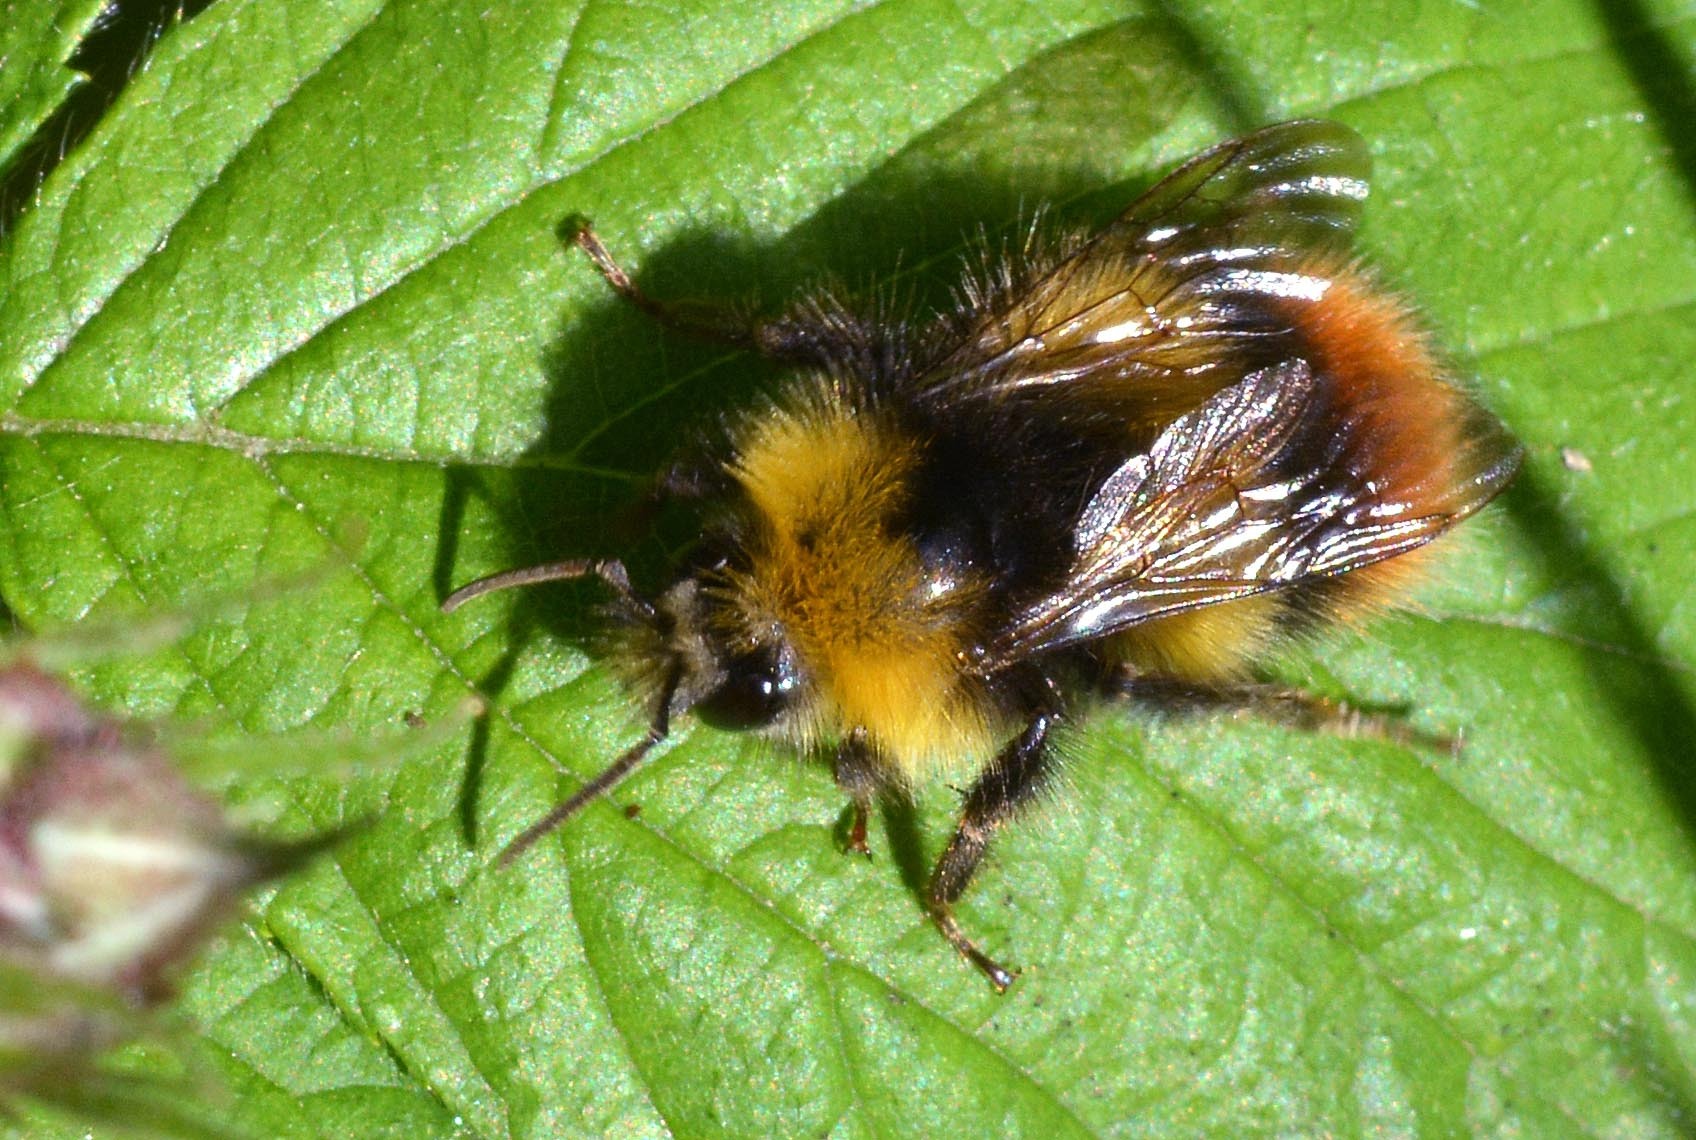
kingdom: Animalia
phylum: Arthropoda
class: Insecta
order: Hymenoptera
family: Apidae
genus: Bombus
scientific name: Bombus pratorum
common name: Early humble-bee
